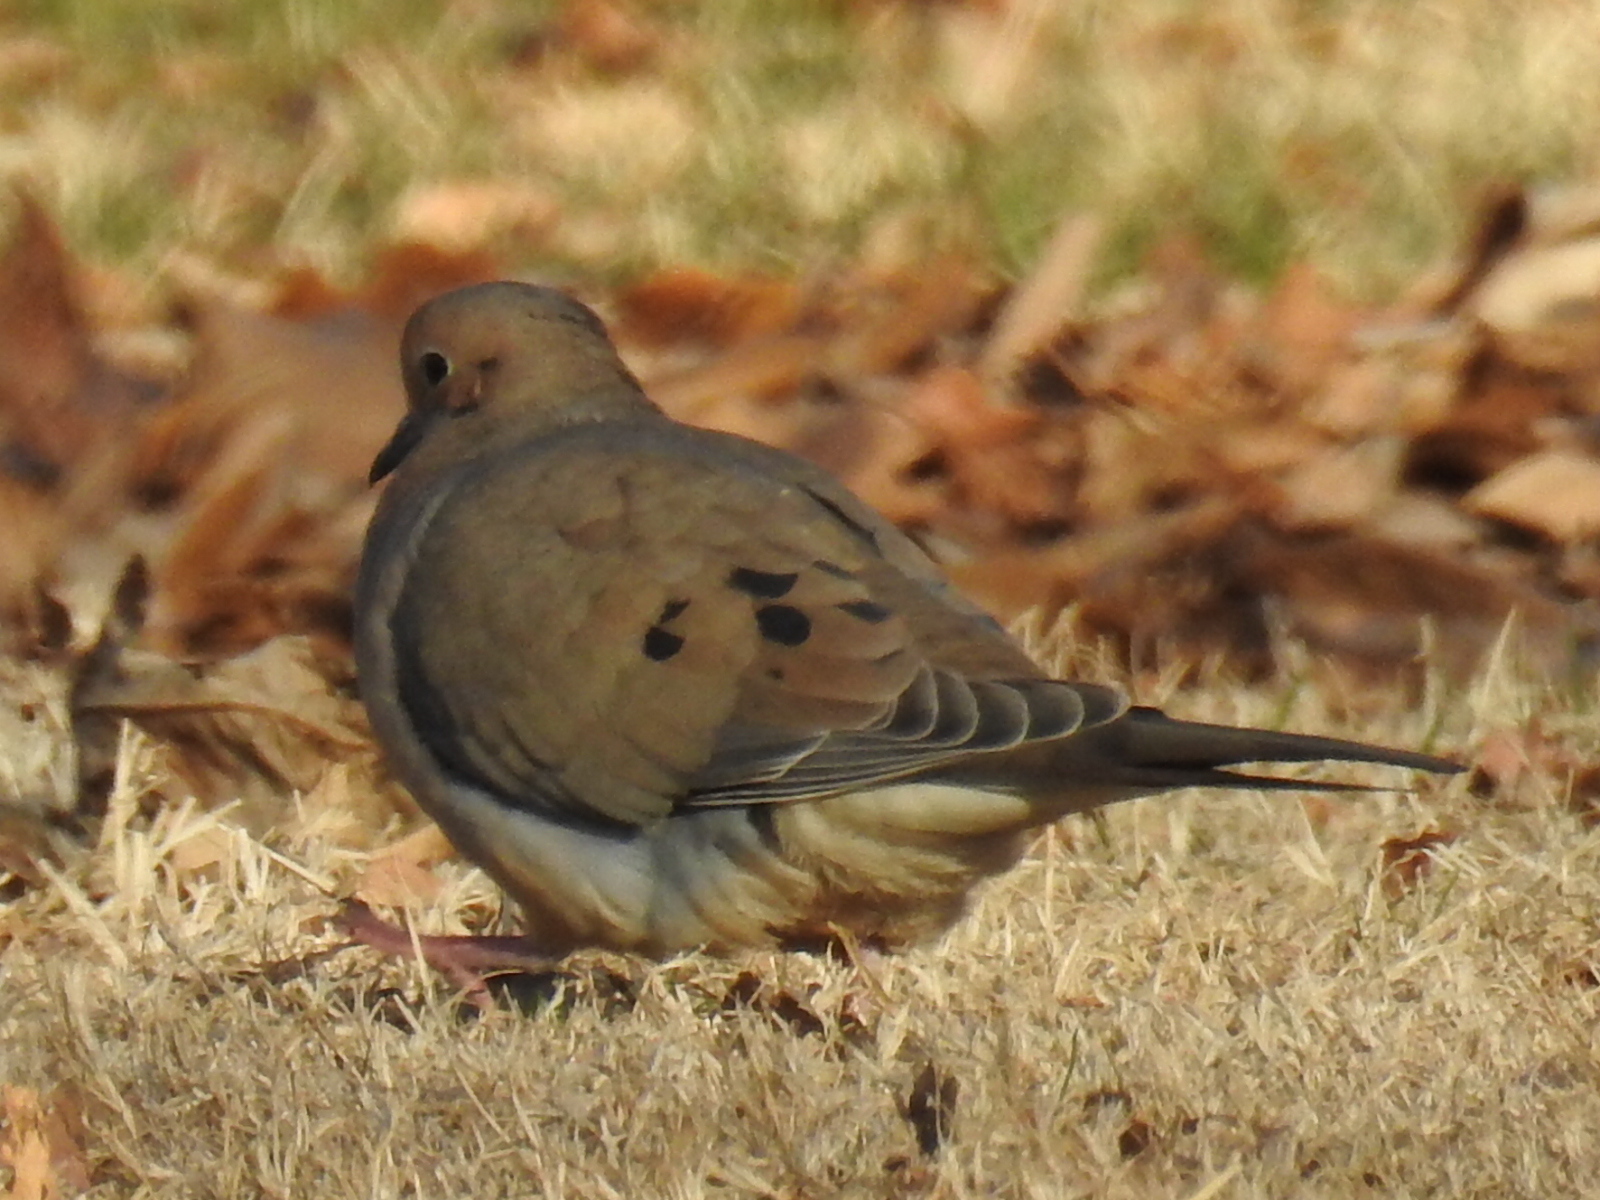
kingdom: Animalia
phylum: Chordata
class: Aves
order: Columbiformes
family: Columbidae
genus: Zenaida
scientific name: Zenaida macroura
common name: Mourning dove
